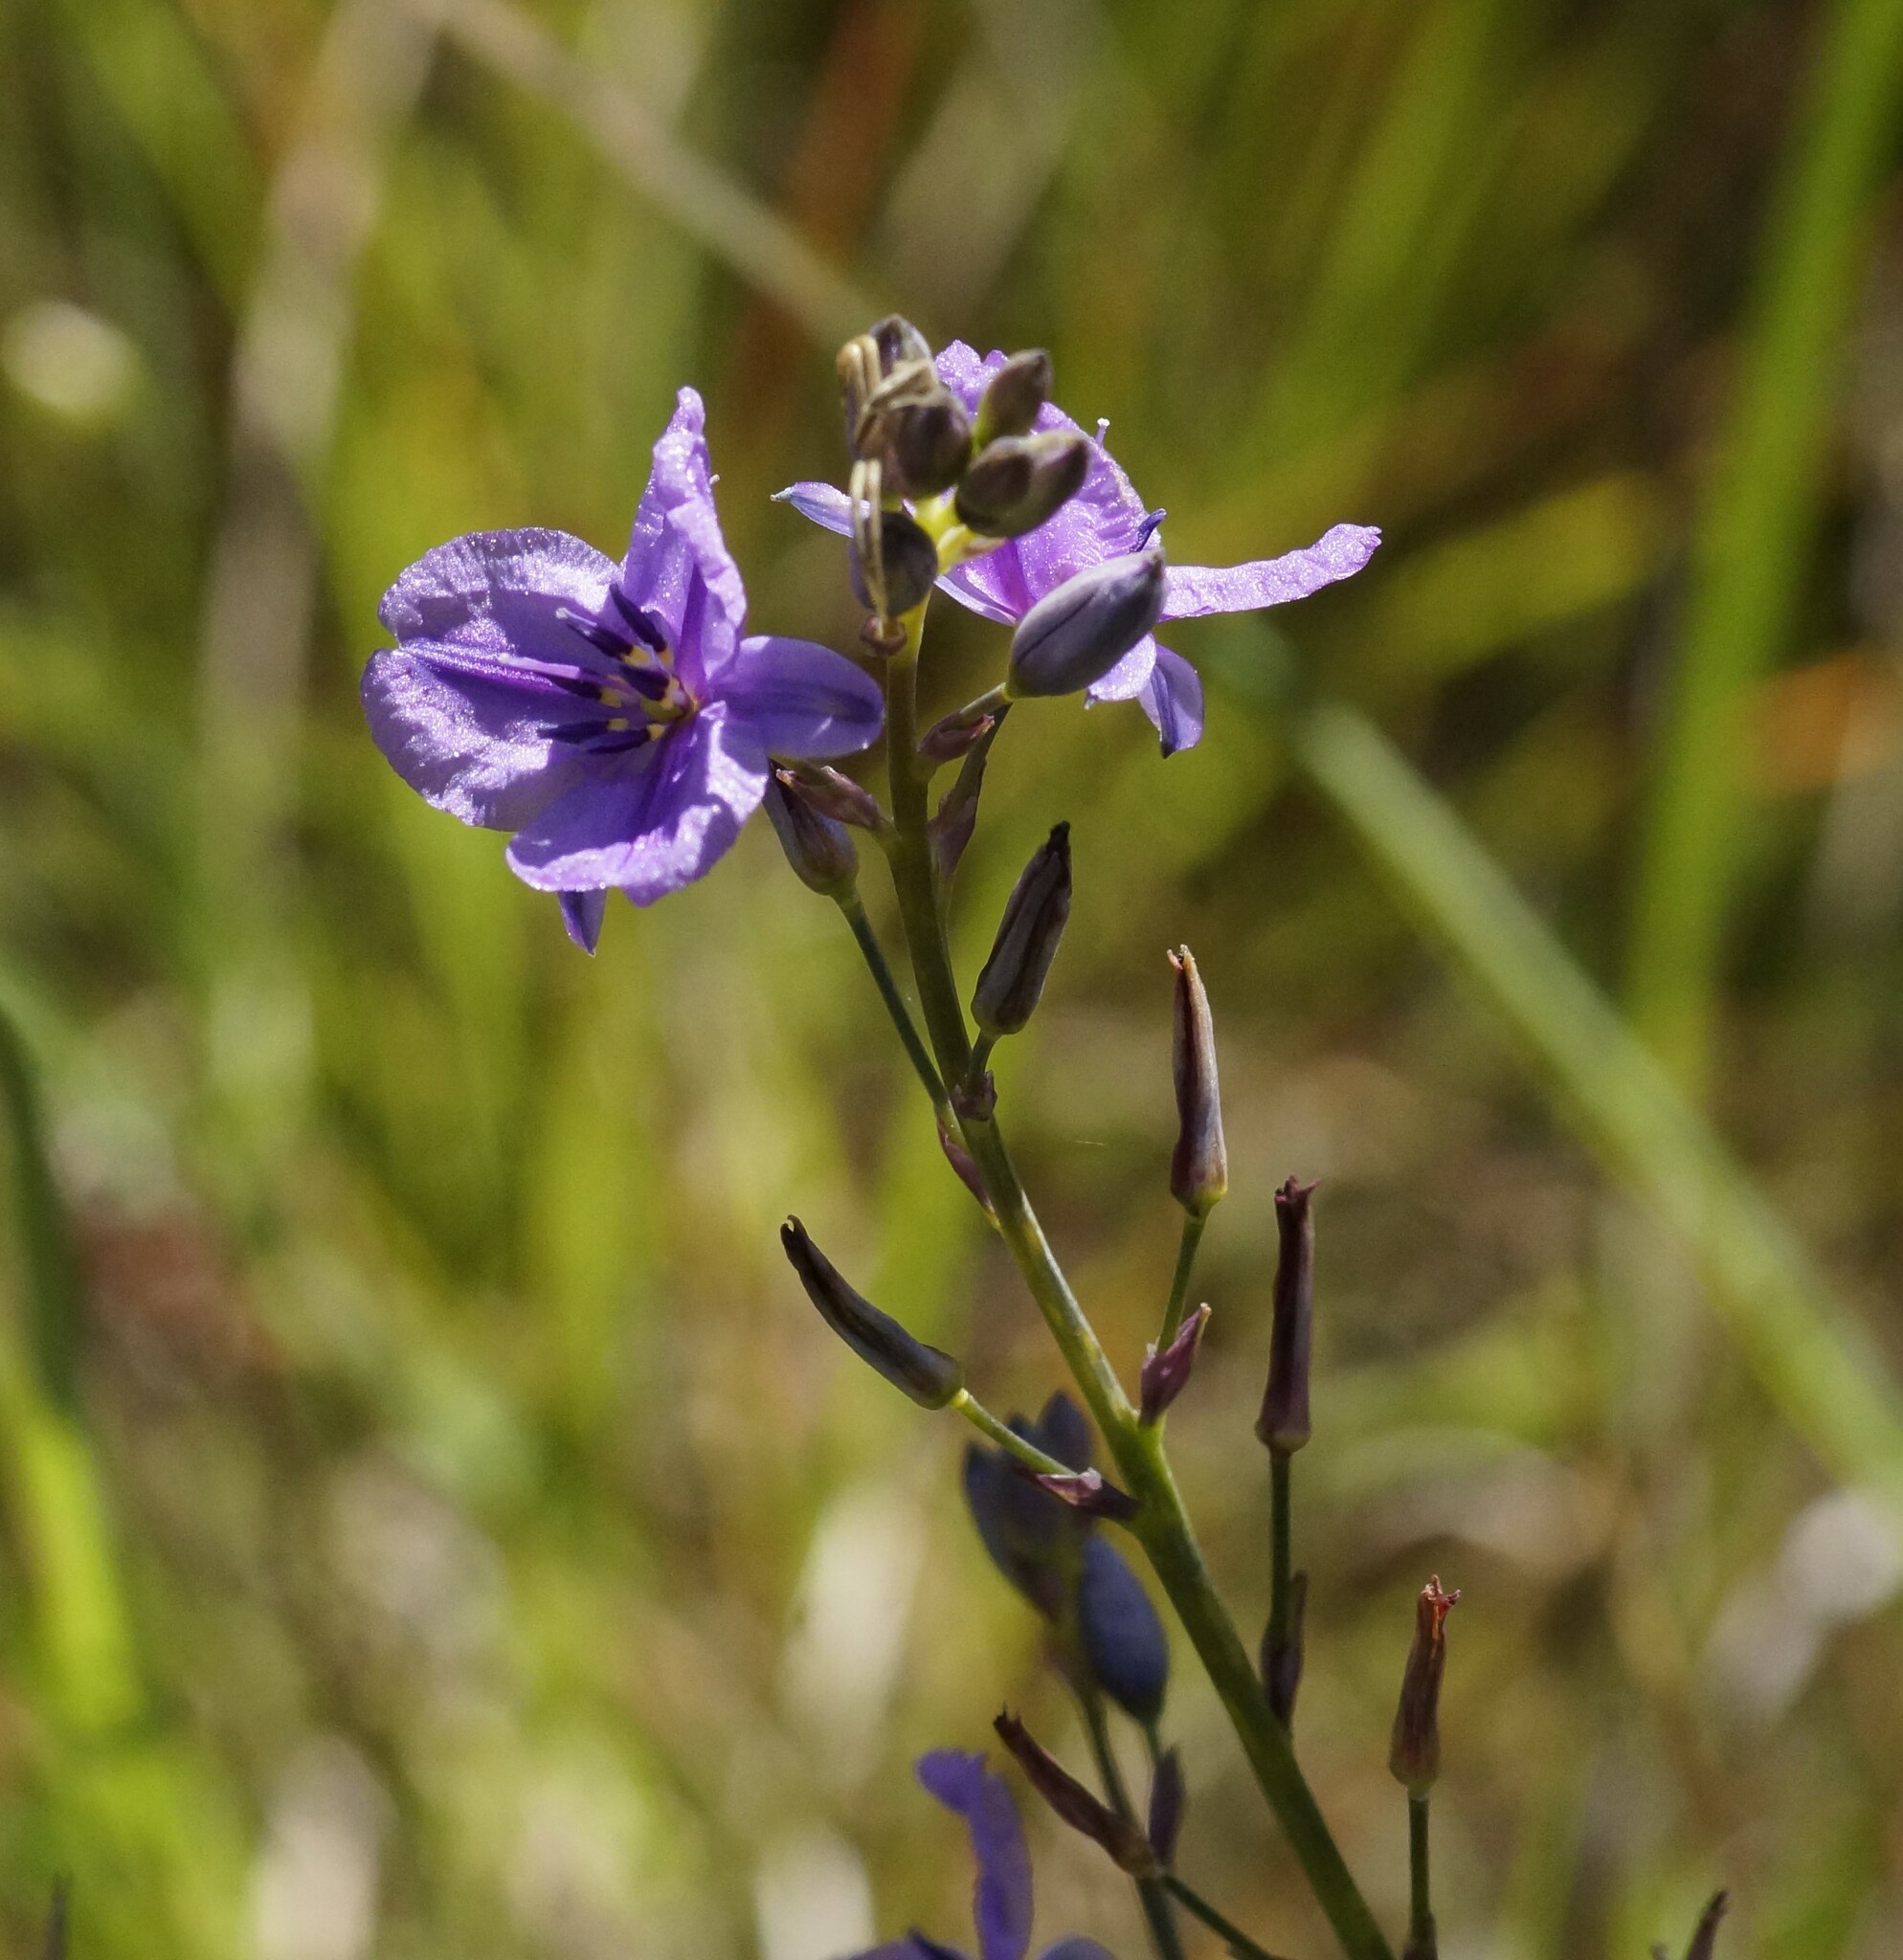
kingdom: Plantae
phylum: Tracheophyta
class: Liliopsida
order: Asparagales
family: Asparagaceae
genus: Arthropodium
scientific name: Arthropodium strictum
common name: Chocolate-lily
